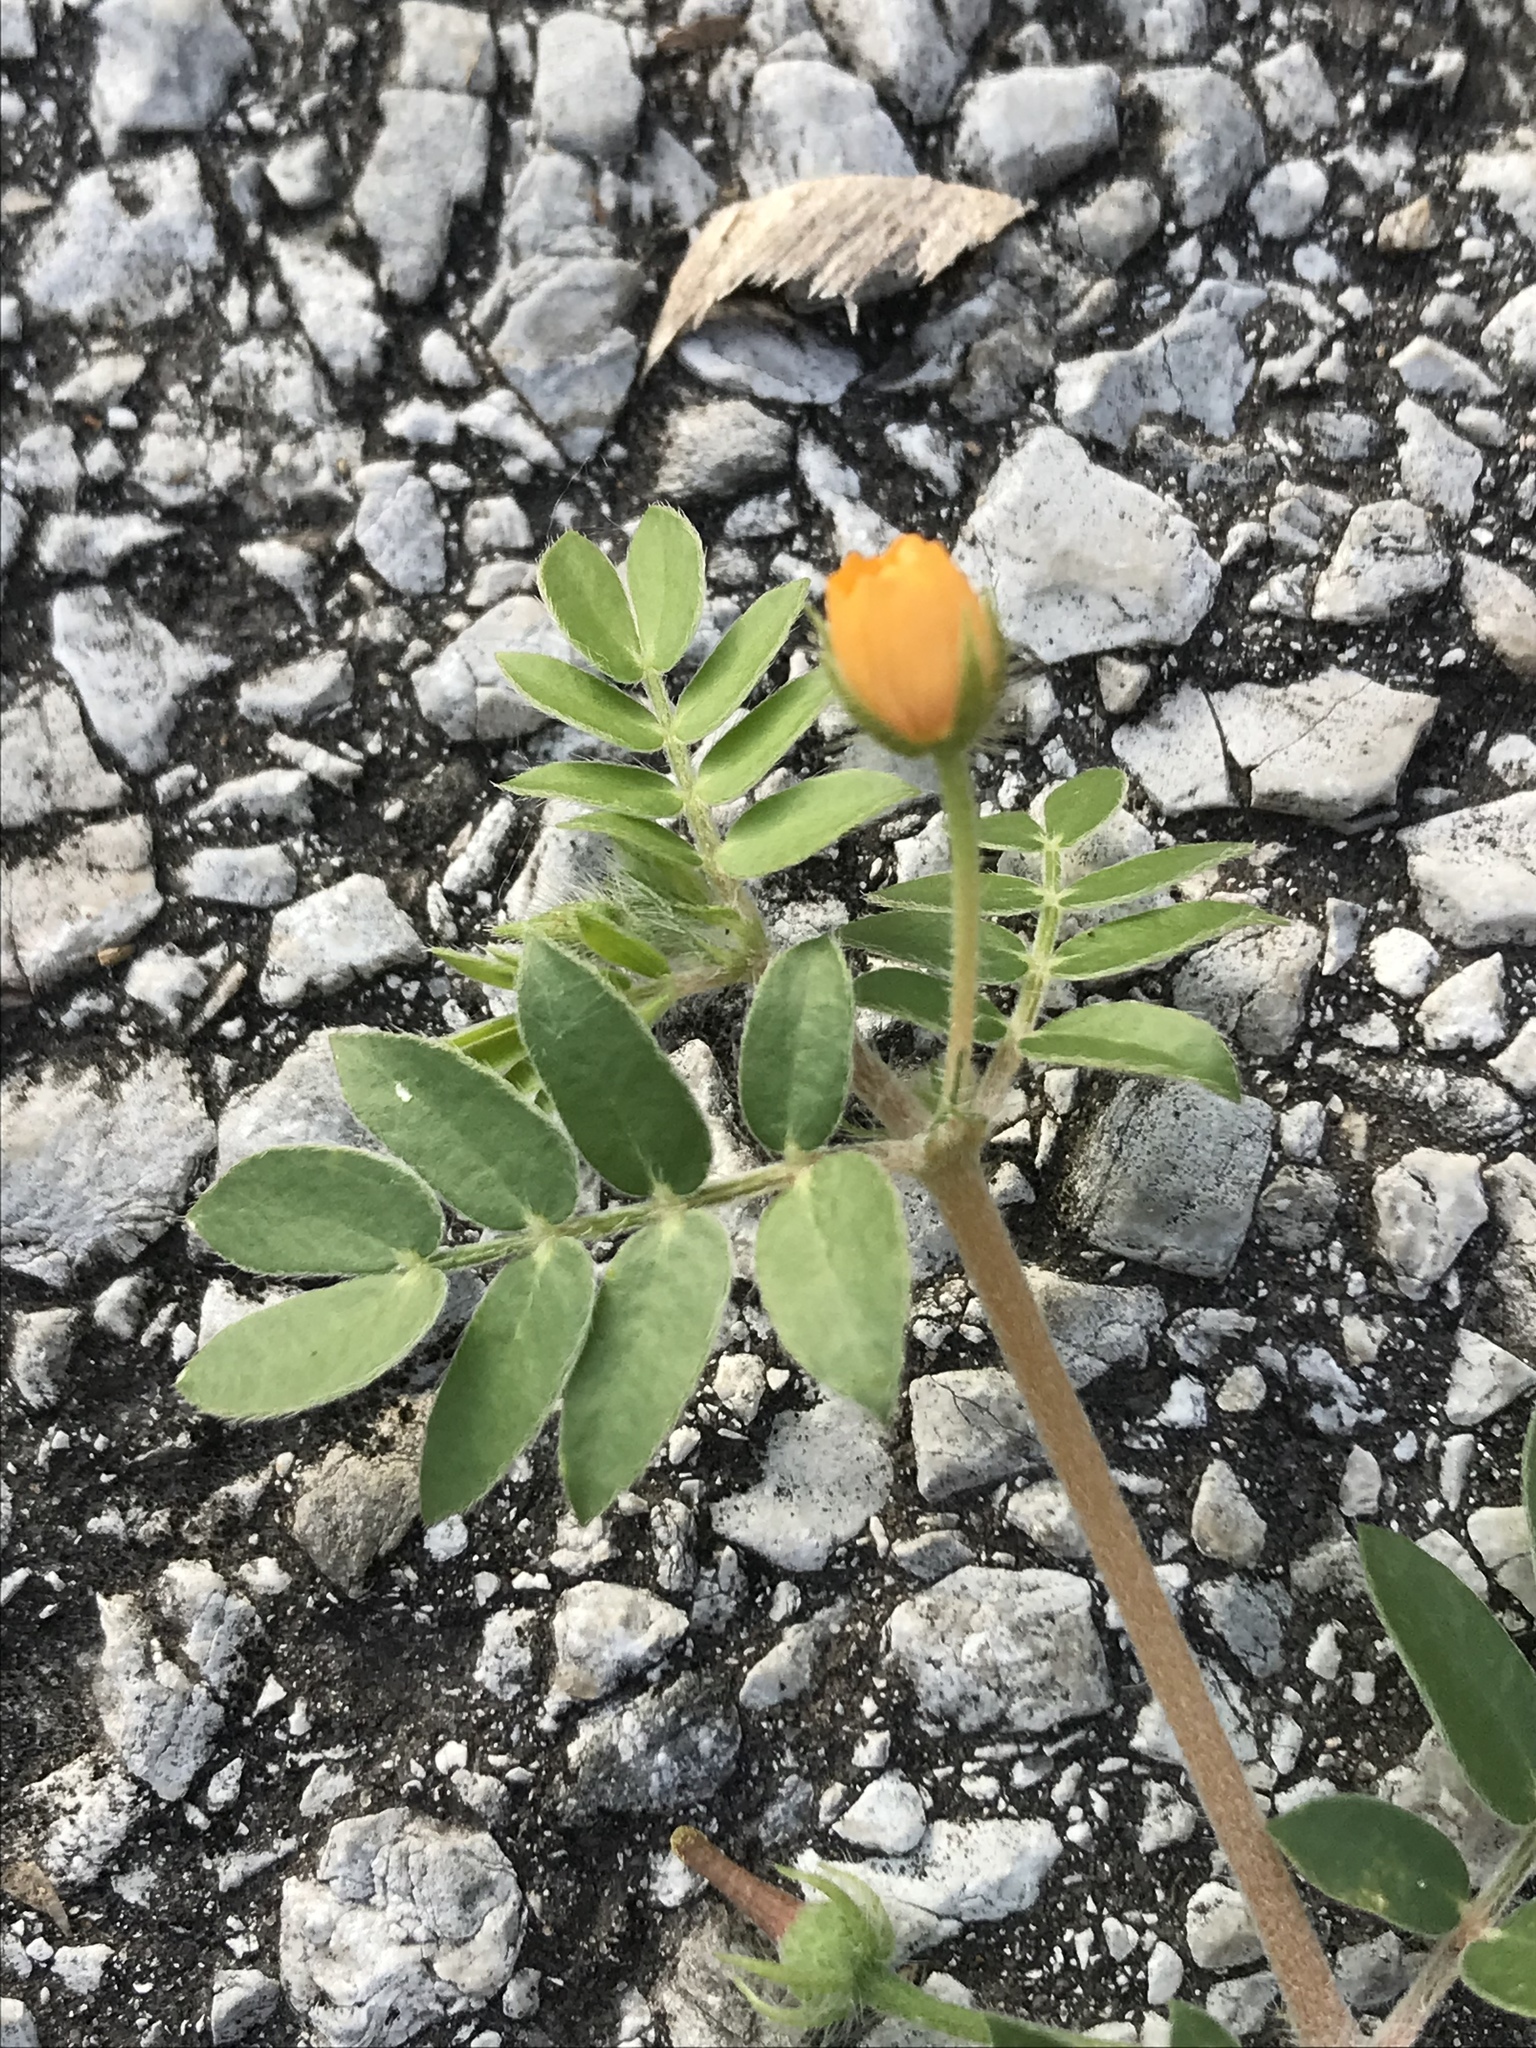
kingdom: Plantae
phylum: Tracheophyta
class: Magnoliopsida
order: Zygophyllales
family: Zygophyllaceae
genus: Kallstroemia
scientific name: Kallstroemia parviflora
